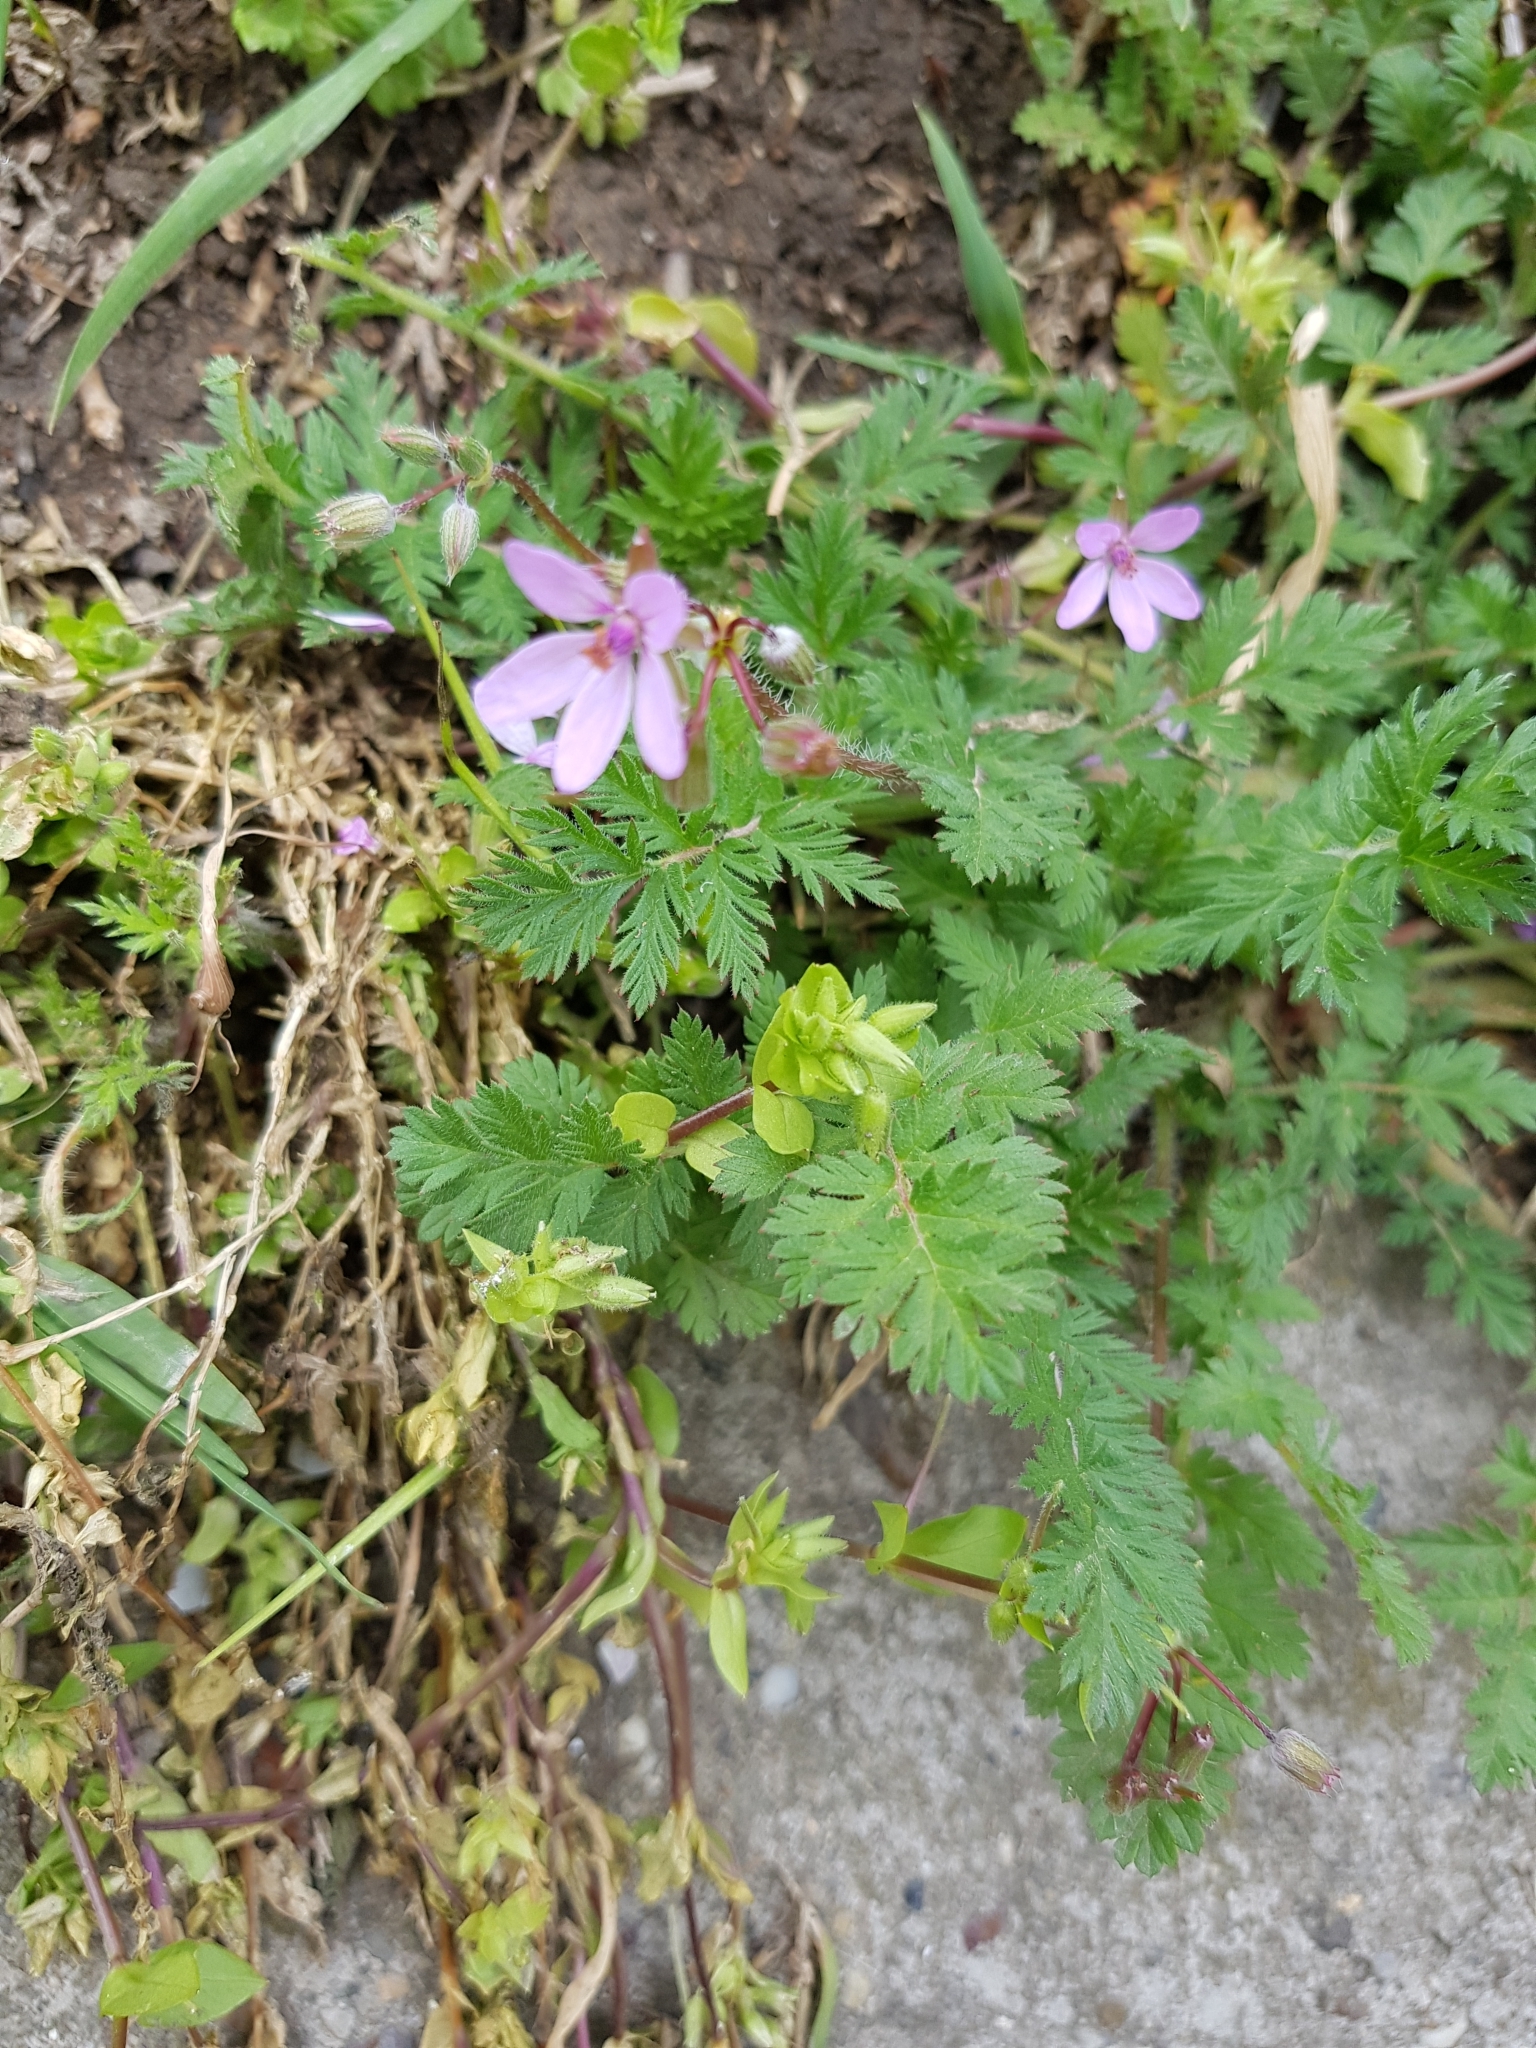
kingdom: Plantae
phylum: Tracheophyta
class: Magnoliopsida
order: Geraniales
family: Geraniaceae
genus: Erodium
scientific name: Erodium cicutarium
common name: Common stork's-bill
